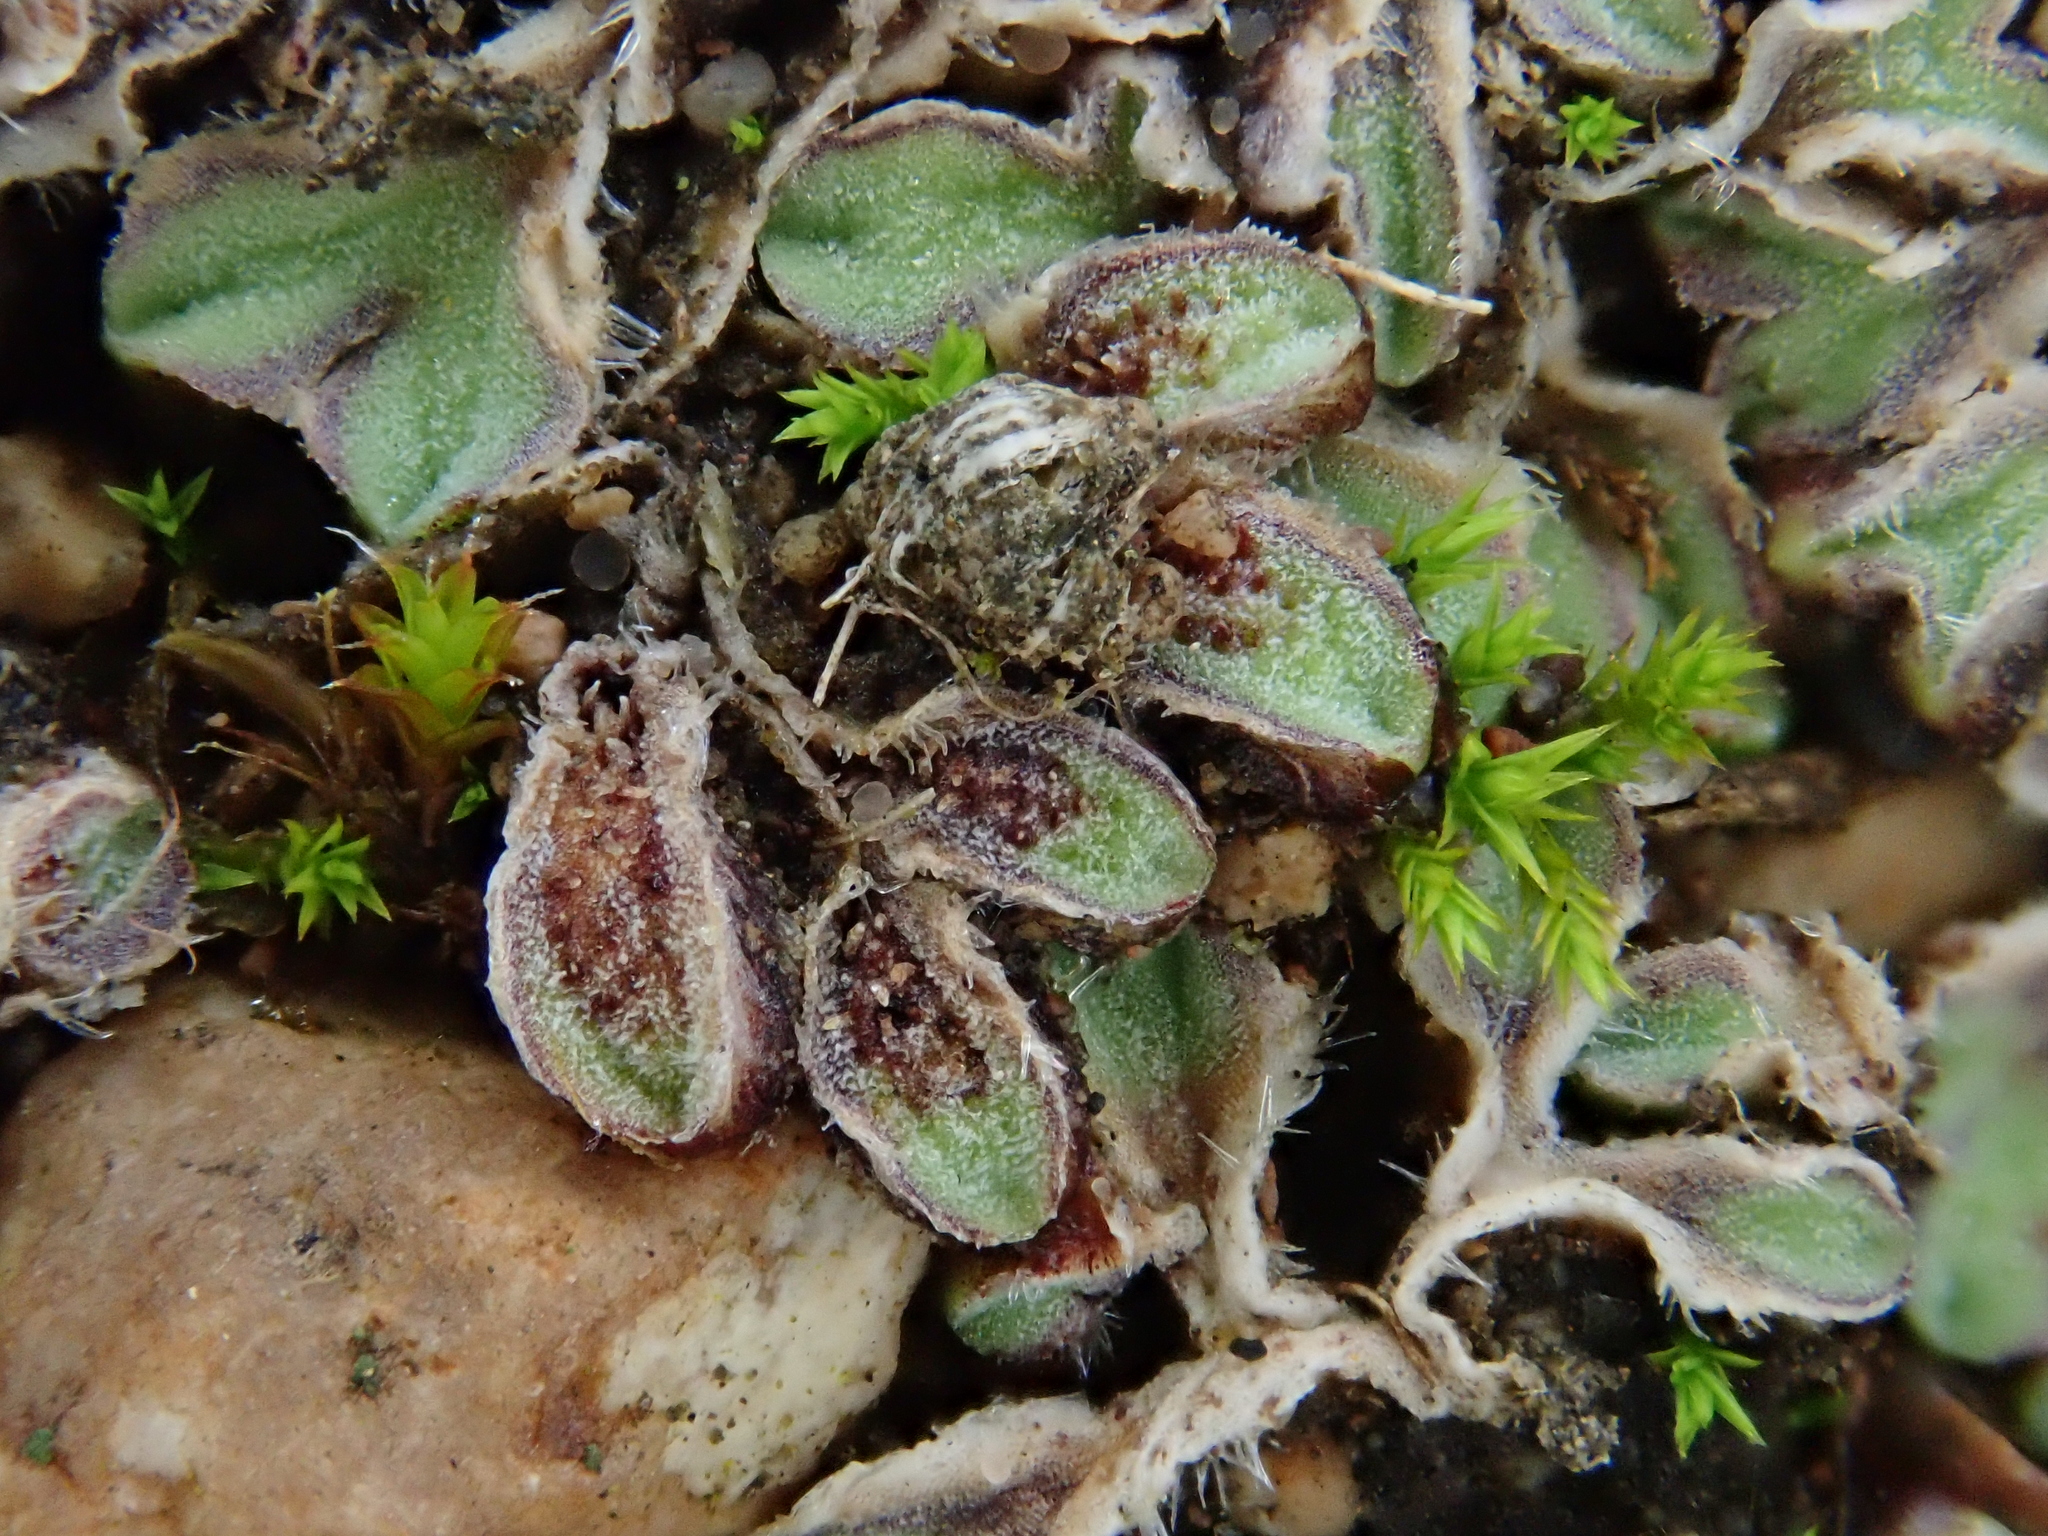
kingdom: Plantae
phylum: Marchantiophyta
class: Marchantiopsida
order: Marchantiales
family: Ricciaceae
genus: Riccia
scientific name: Riccia ciliifera
